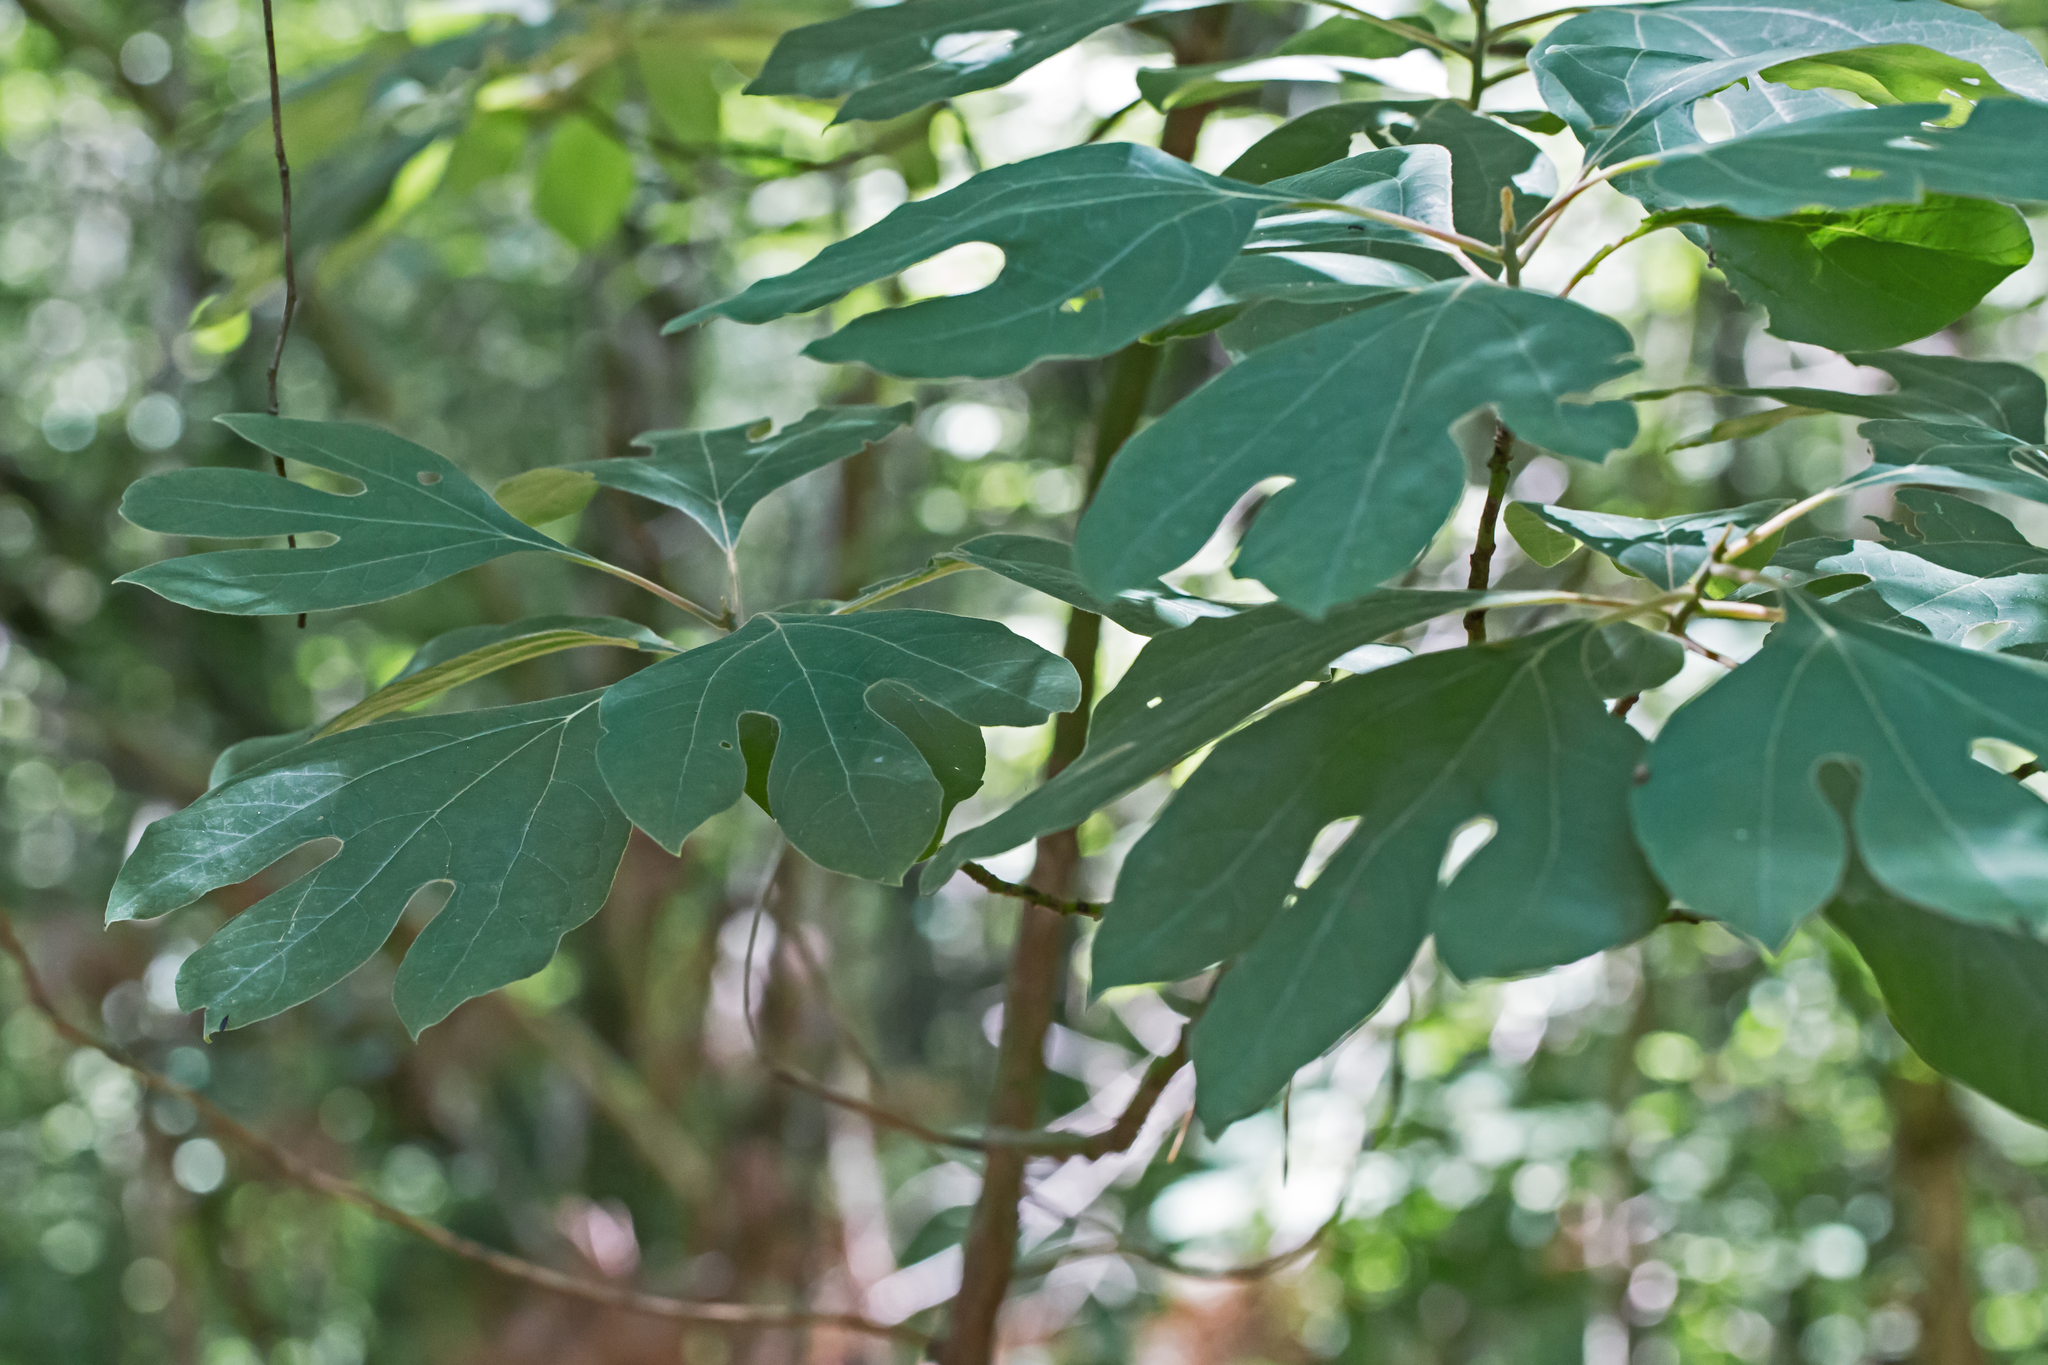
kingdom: Plantae
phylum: Tracheophyta
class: Magnoliopsida
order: Laurales
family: Lauraceae
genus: Sassafras
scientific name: Sassafras albidum
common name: Sassafras
